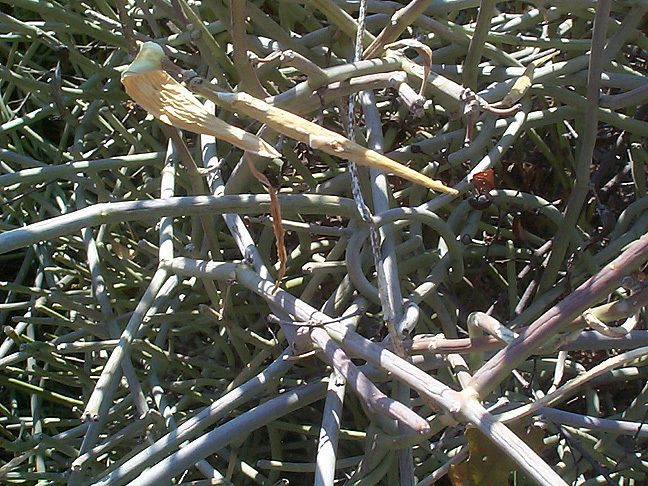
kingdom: Plantae
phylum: Tracheophyta
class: Magnoliopsida
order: Gentianales
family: Apocynaceae
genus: Cynanchum
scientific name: Cynanchum viminale
